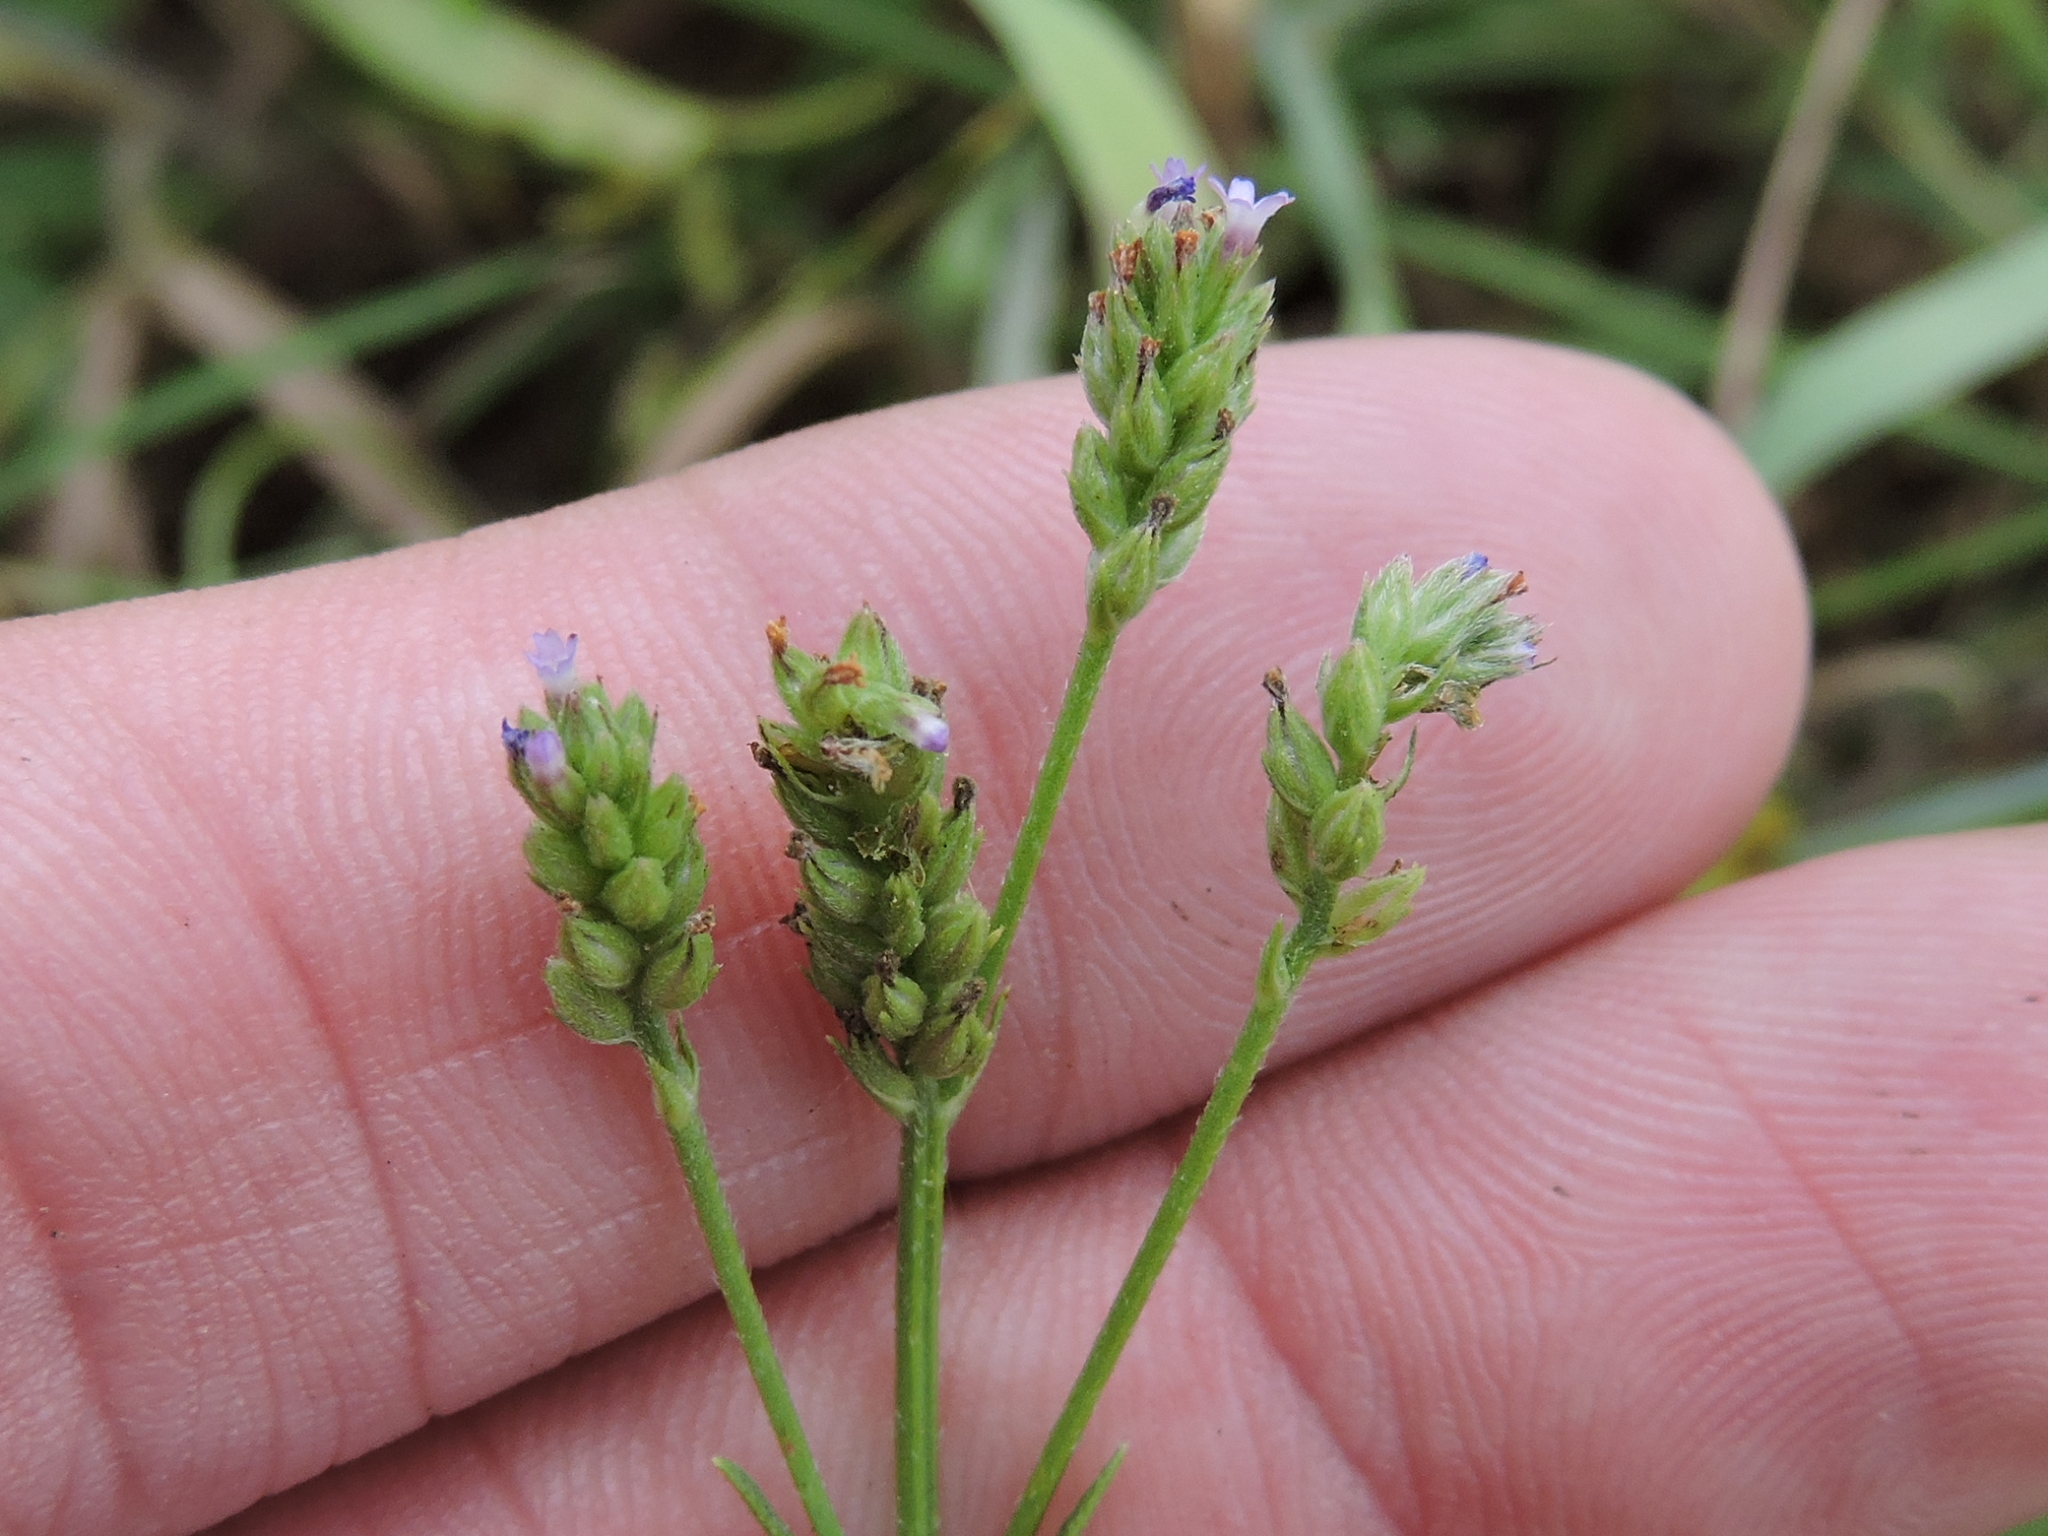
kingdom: Plantae
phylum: Tracheophyta
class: Magnoliopsida
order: Lamiales
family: Verbenaceae
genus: Verbena
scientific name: Verbena brasiliensis
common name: Brazilian vervain
